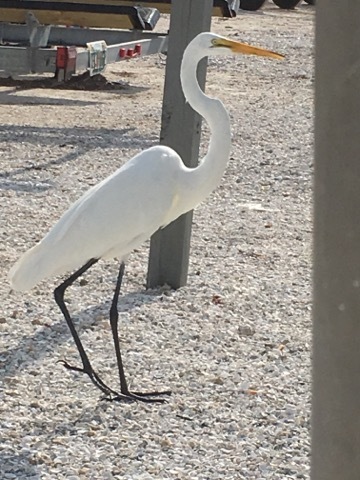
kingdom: Animalia
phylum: Chordata
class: Aves
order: Pelecaniformes
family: Ardeidae
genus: Ardea
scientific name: Ardea alba
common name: Great egret
